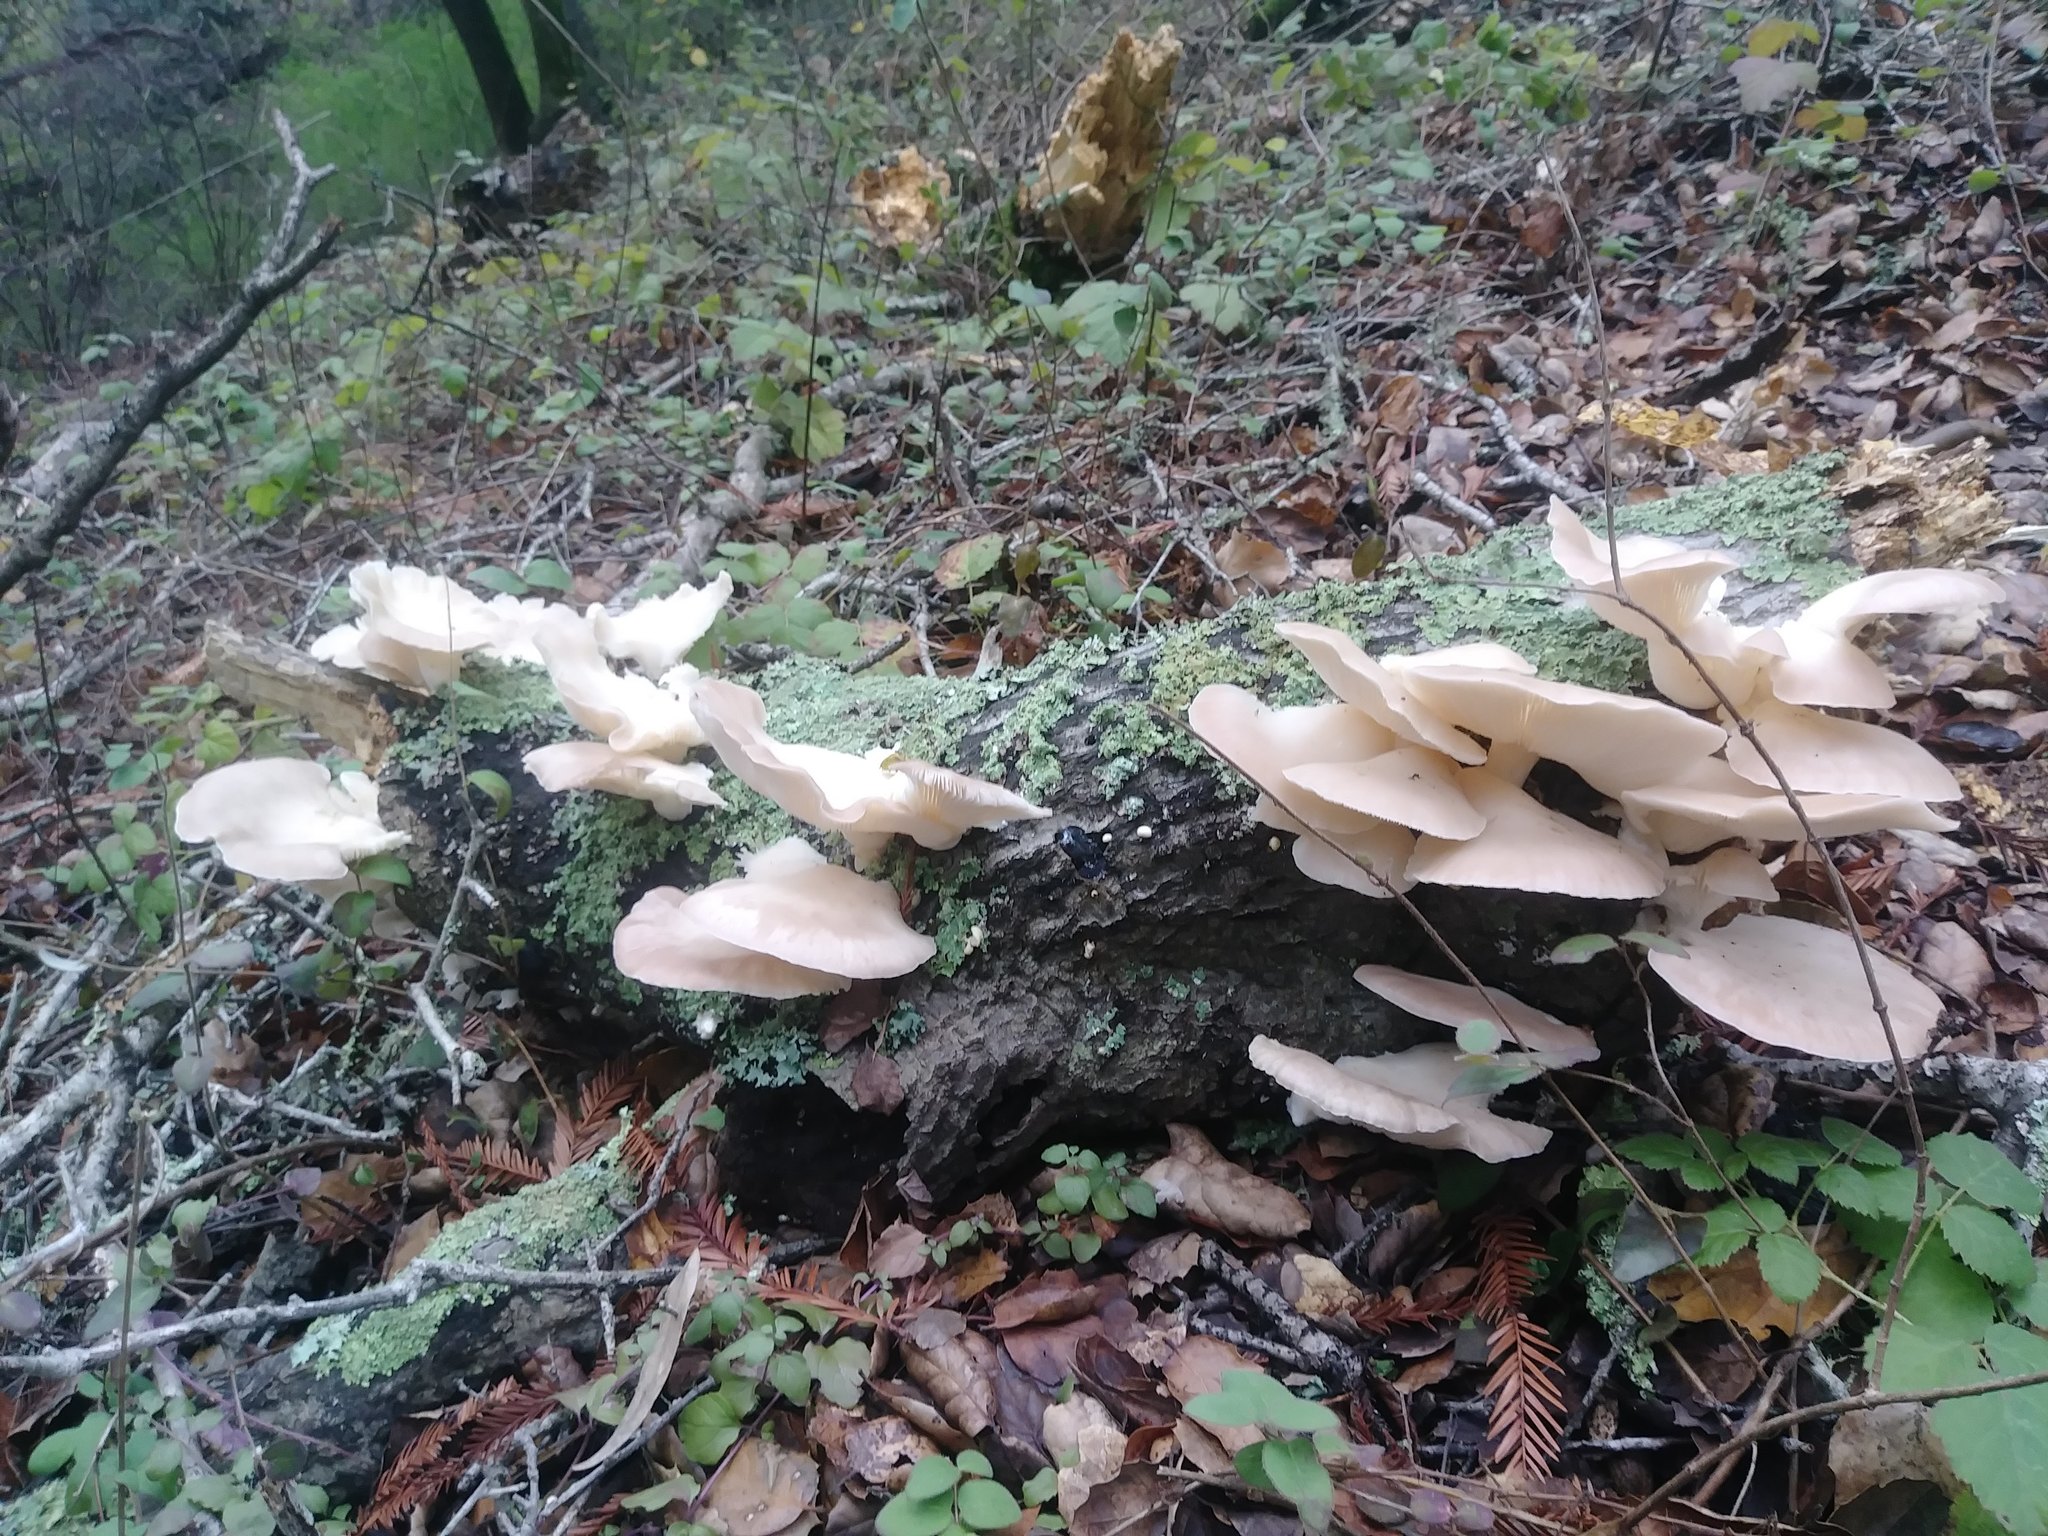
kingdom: Fungi
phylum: Basidiomycota
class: Agaricomycetes
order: Agaricales
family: Pleurotaceae
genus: Pleurotus
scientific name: Pleurotus ostreatus
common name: Oyster mushroom
